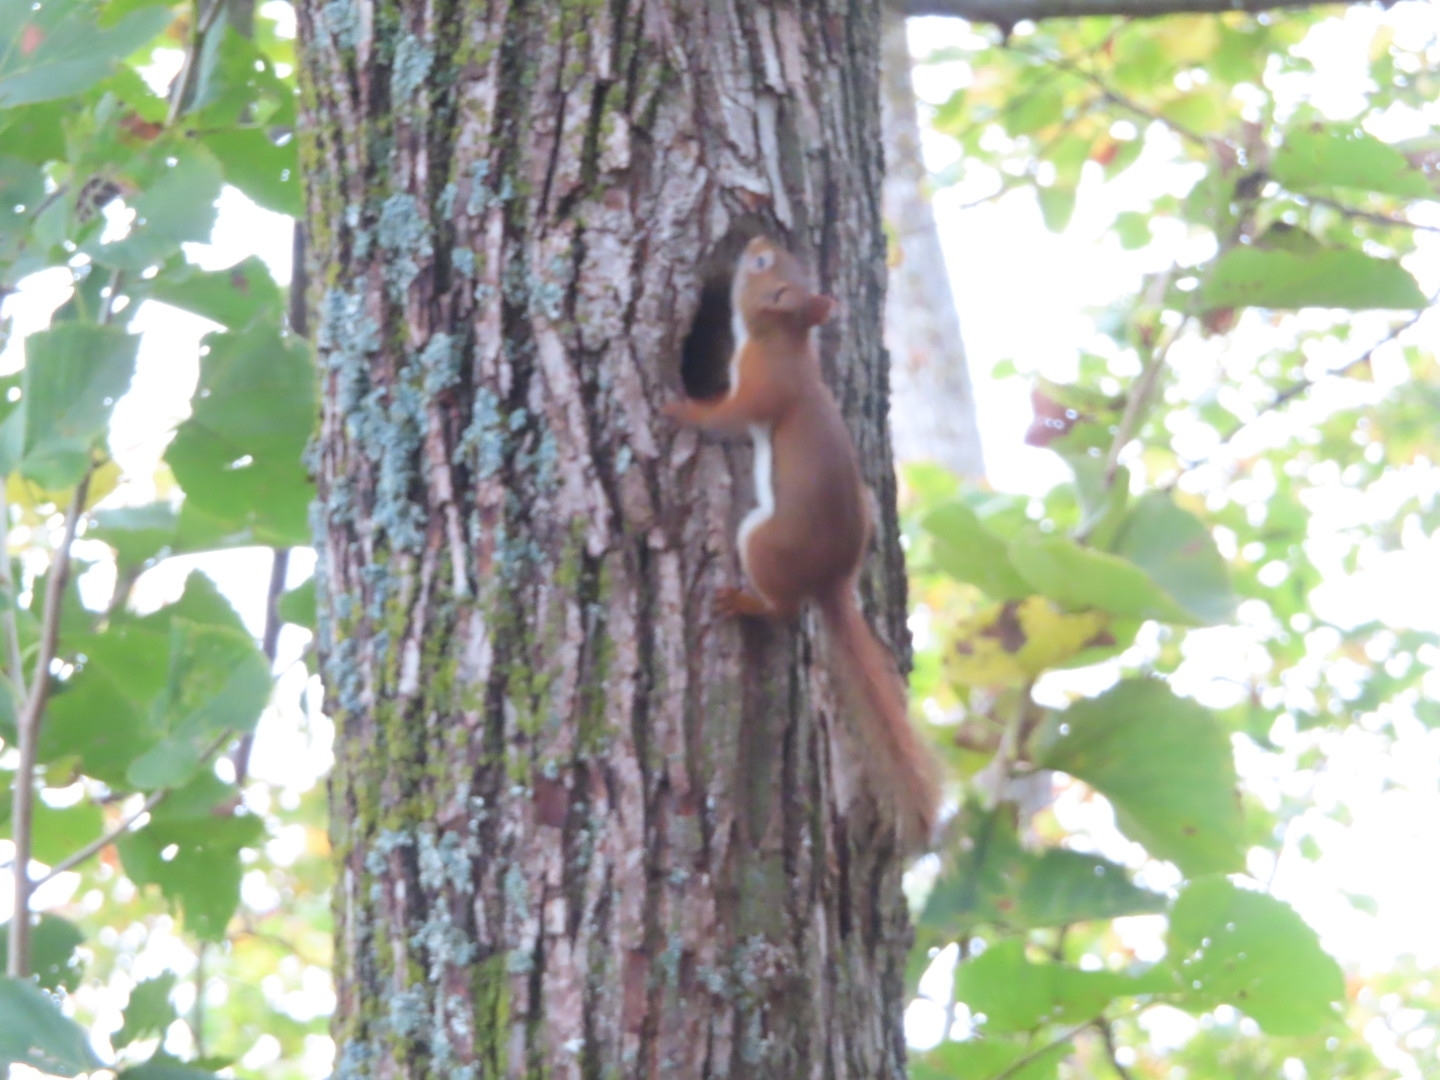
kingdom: Animalia
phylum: Chordata
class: Mammalia
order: Rodentia
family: Sciuridae
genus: Tamiasciurus
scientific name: Tamiasciurus hudsonicus
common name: Red squirrel
